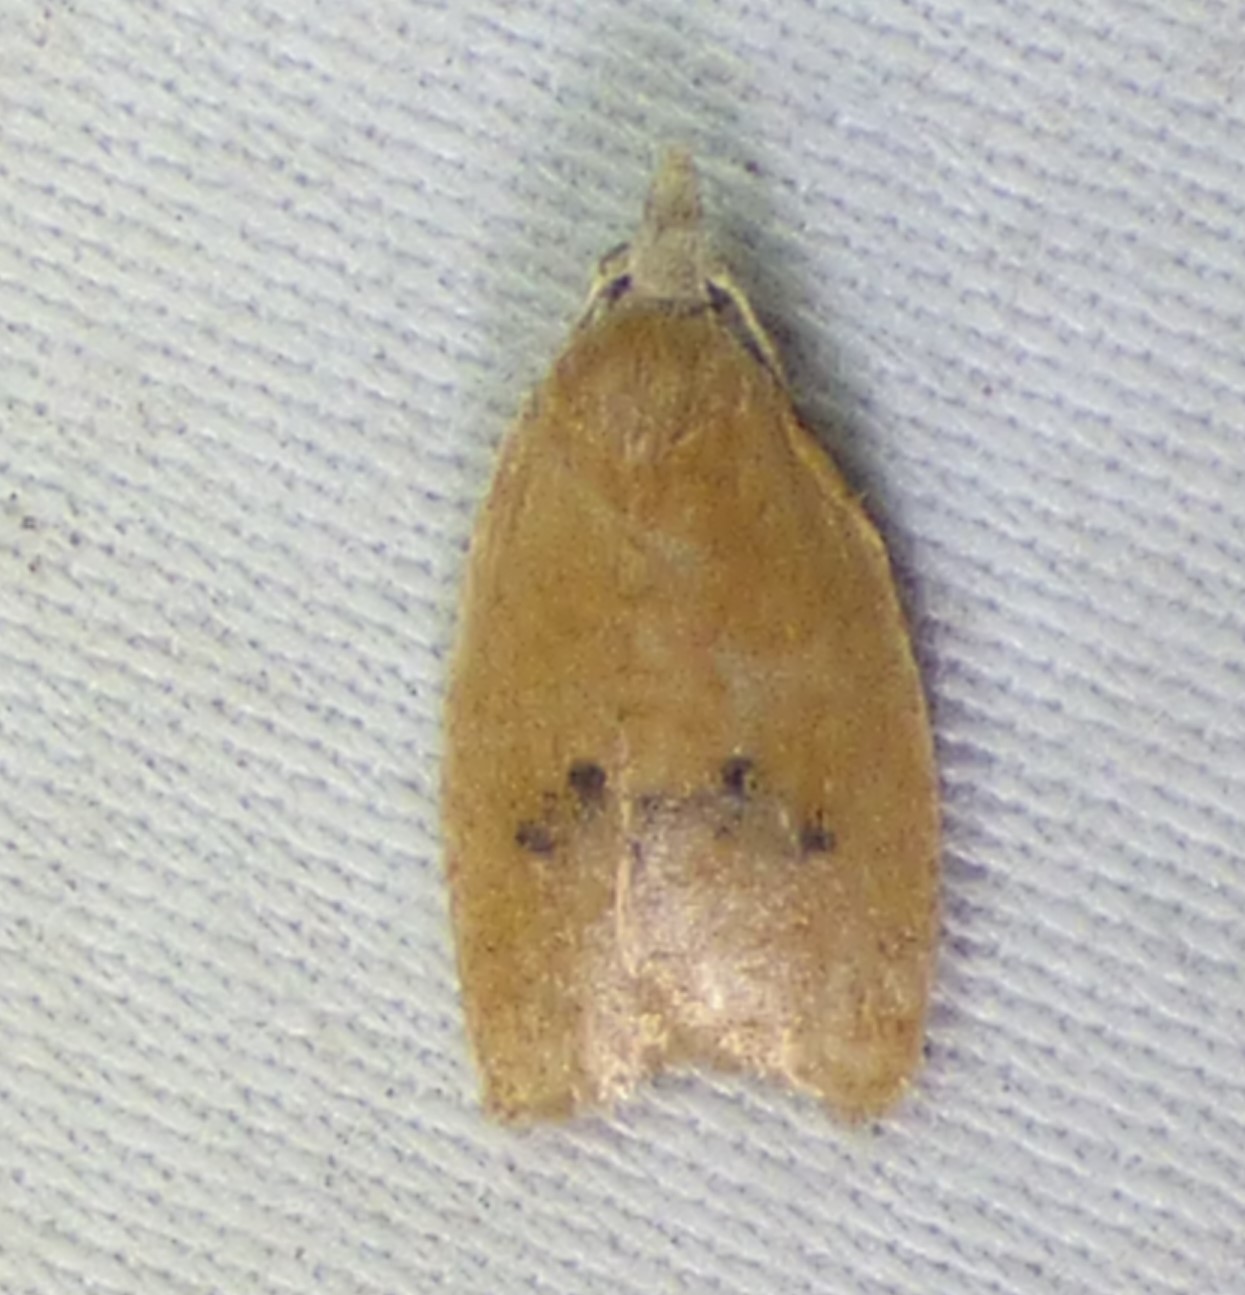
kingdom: Animalia
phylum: Arthropoda
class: Insecta
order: Lepidoptera
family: Tortricidae
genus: Sparganothoides
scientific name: Sparganothoides lentiginosana
